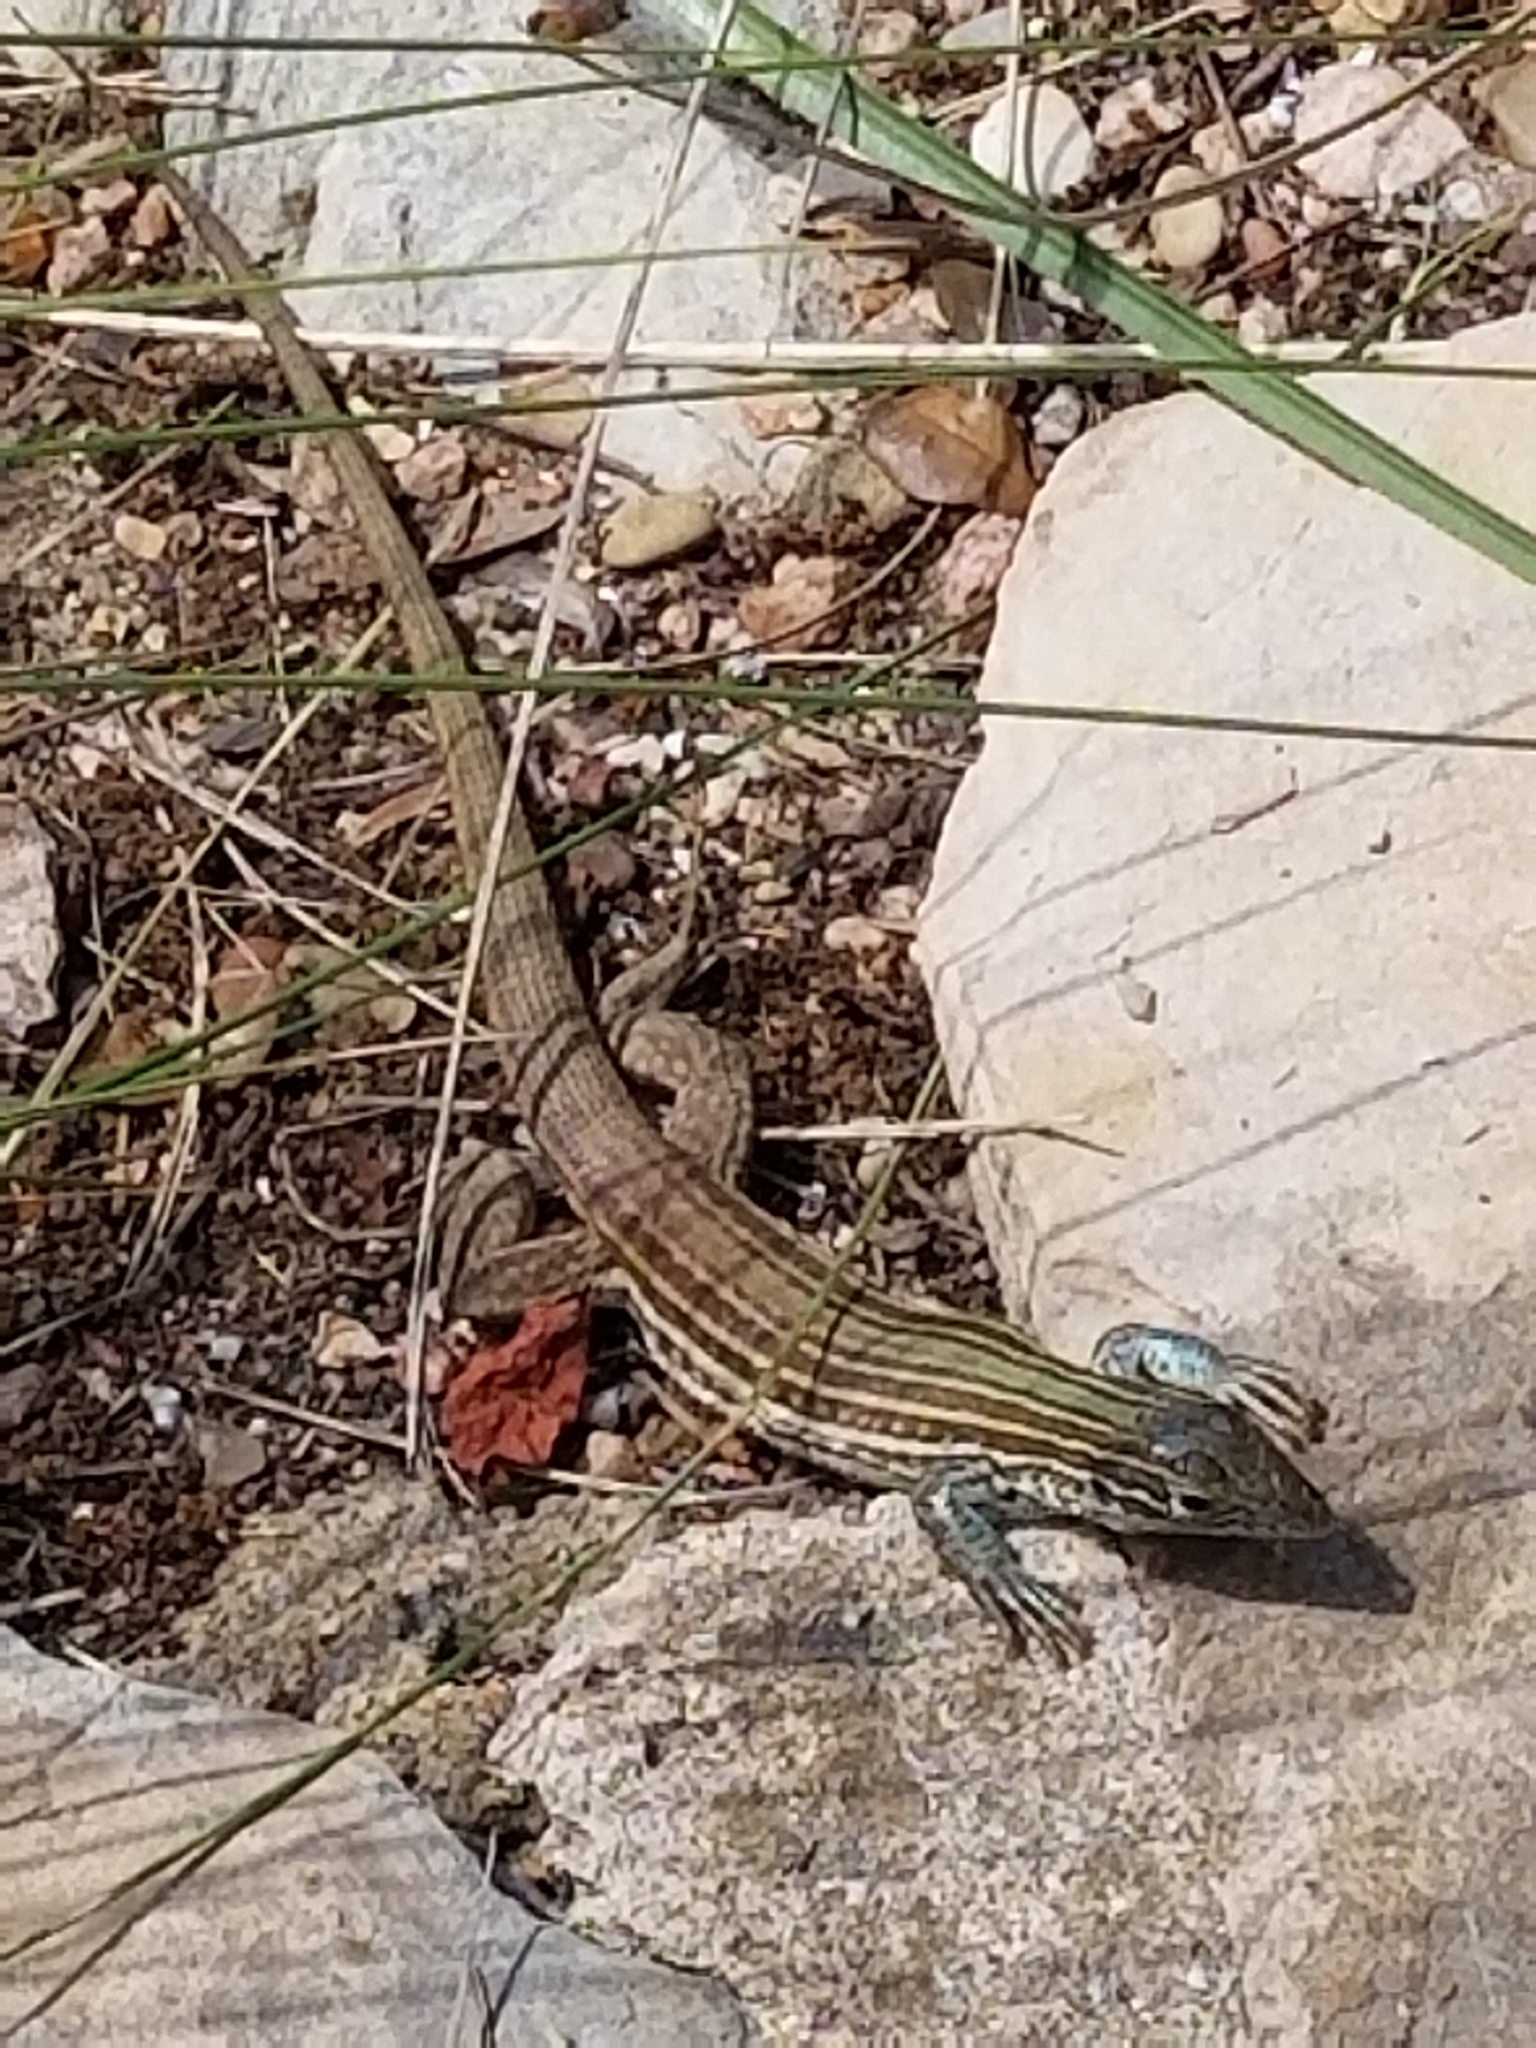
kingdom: Animalia
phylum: Chordata
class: Squamata
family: Teiidae
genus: Aspidoscelis
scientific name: Aspidoscelis gularis
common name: Eastern spotted whiptail
